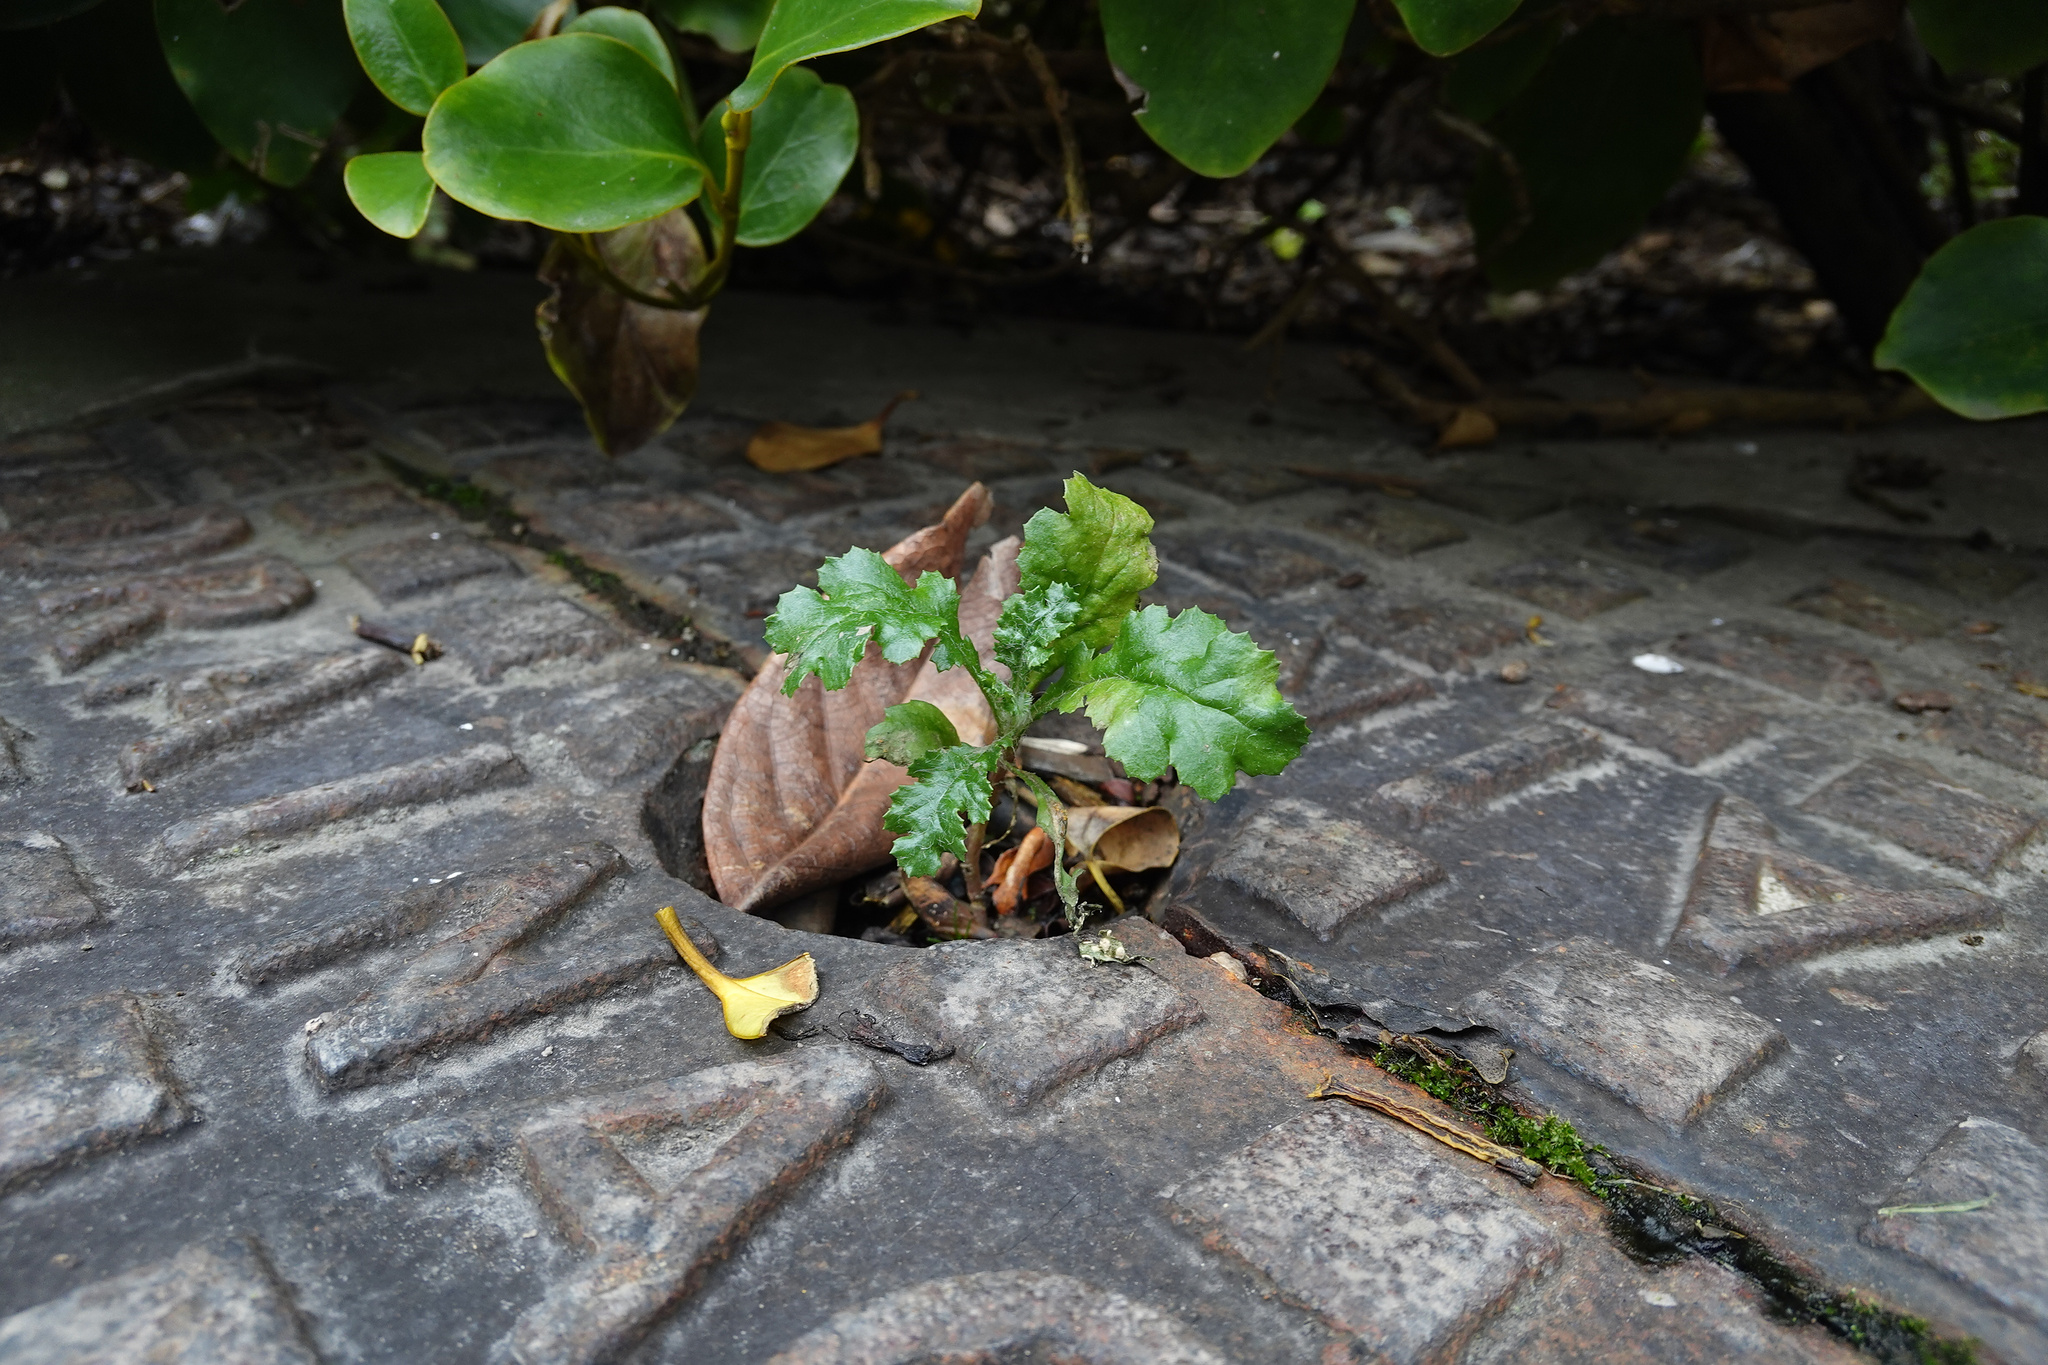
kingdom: Plantae
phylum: Tracheophyta
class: Magnoliopsida
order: Asterales
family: Asteraceae
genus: Senecio
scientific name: Senecio vulgaris
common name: Old-man-in-the-spring
